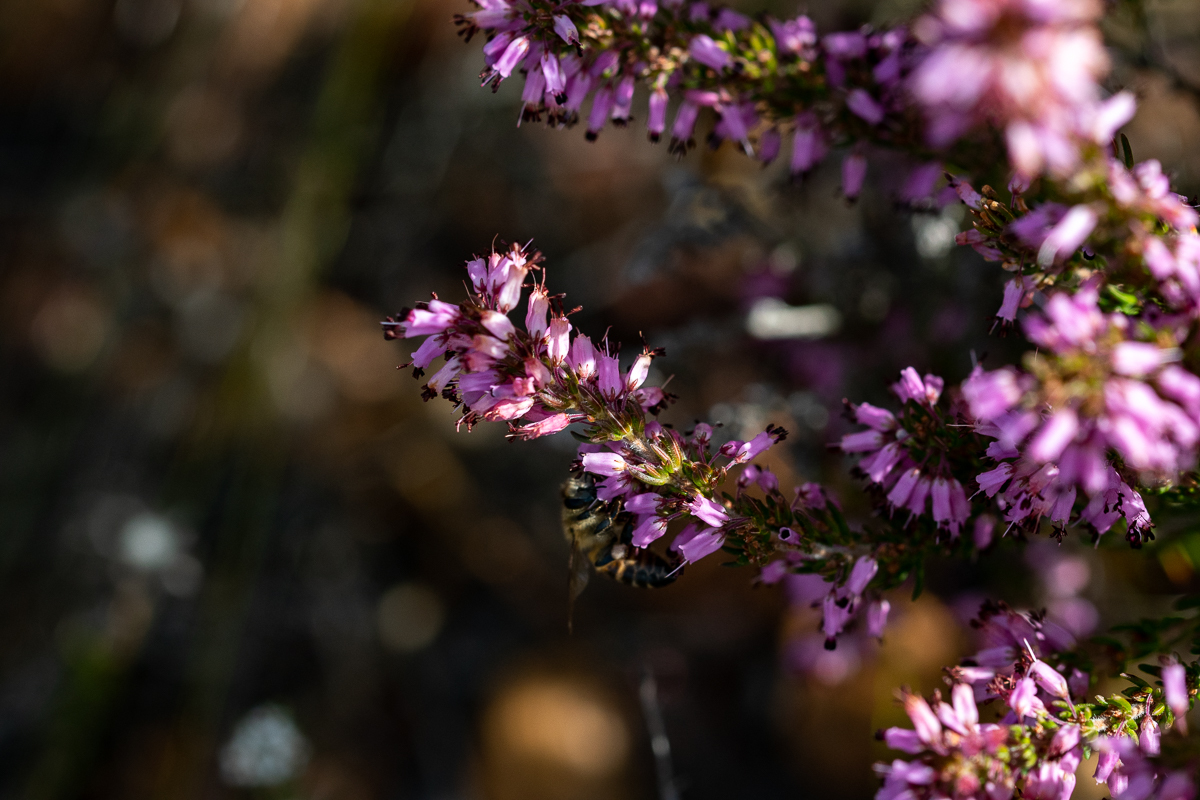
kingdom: Plantae
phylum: Tracheophyta
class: Magnoliopsida
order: Ericales
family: Ericaceae
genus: Erica
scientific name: Erica nudiflora
